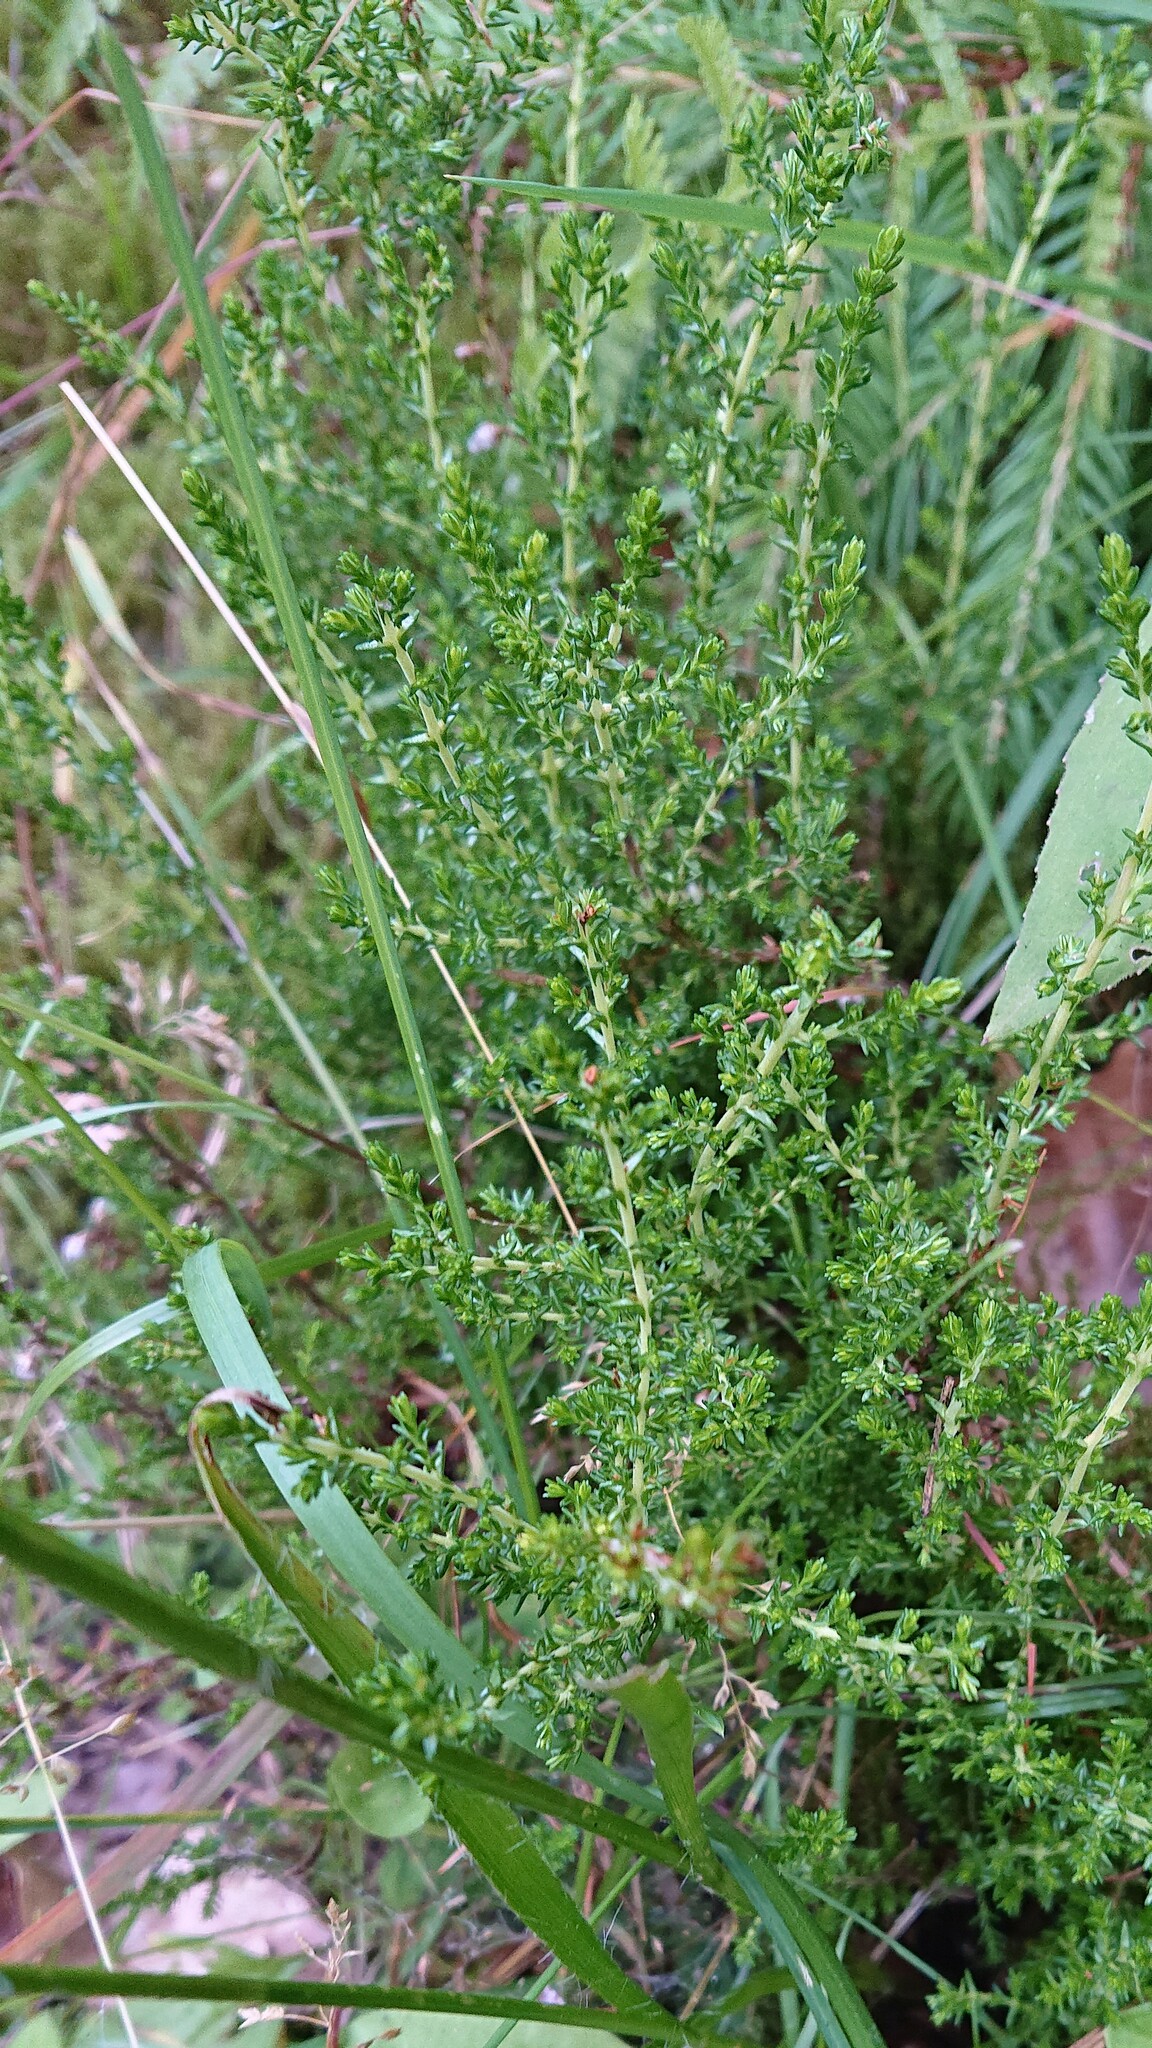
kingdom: Plantae
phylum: Tracheophyta
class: Magnoliopsida
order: Ericales
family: Ericaceae
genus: Calluna
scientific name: Calluna vulgaris
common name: Heather
